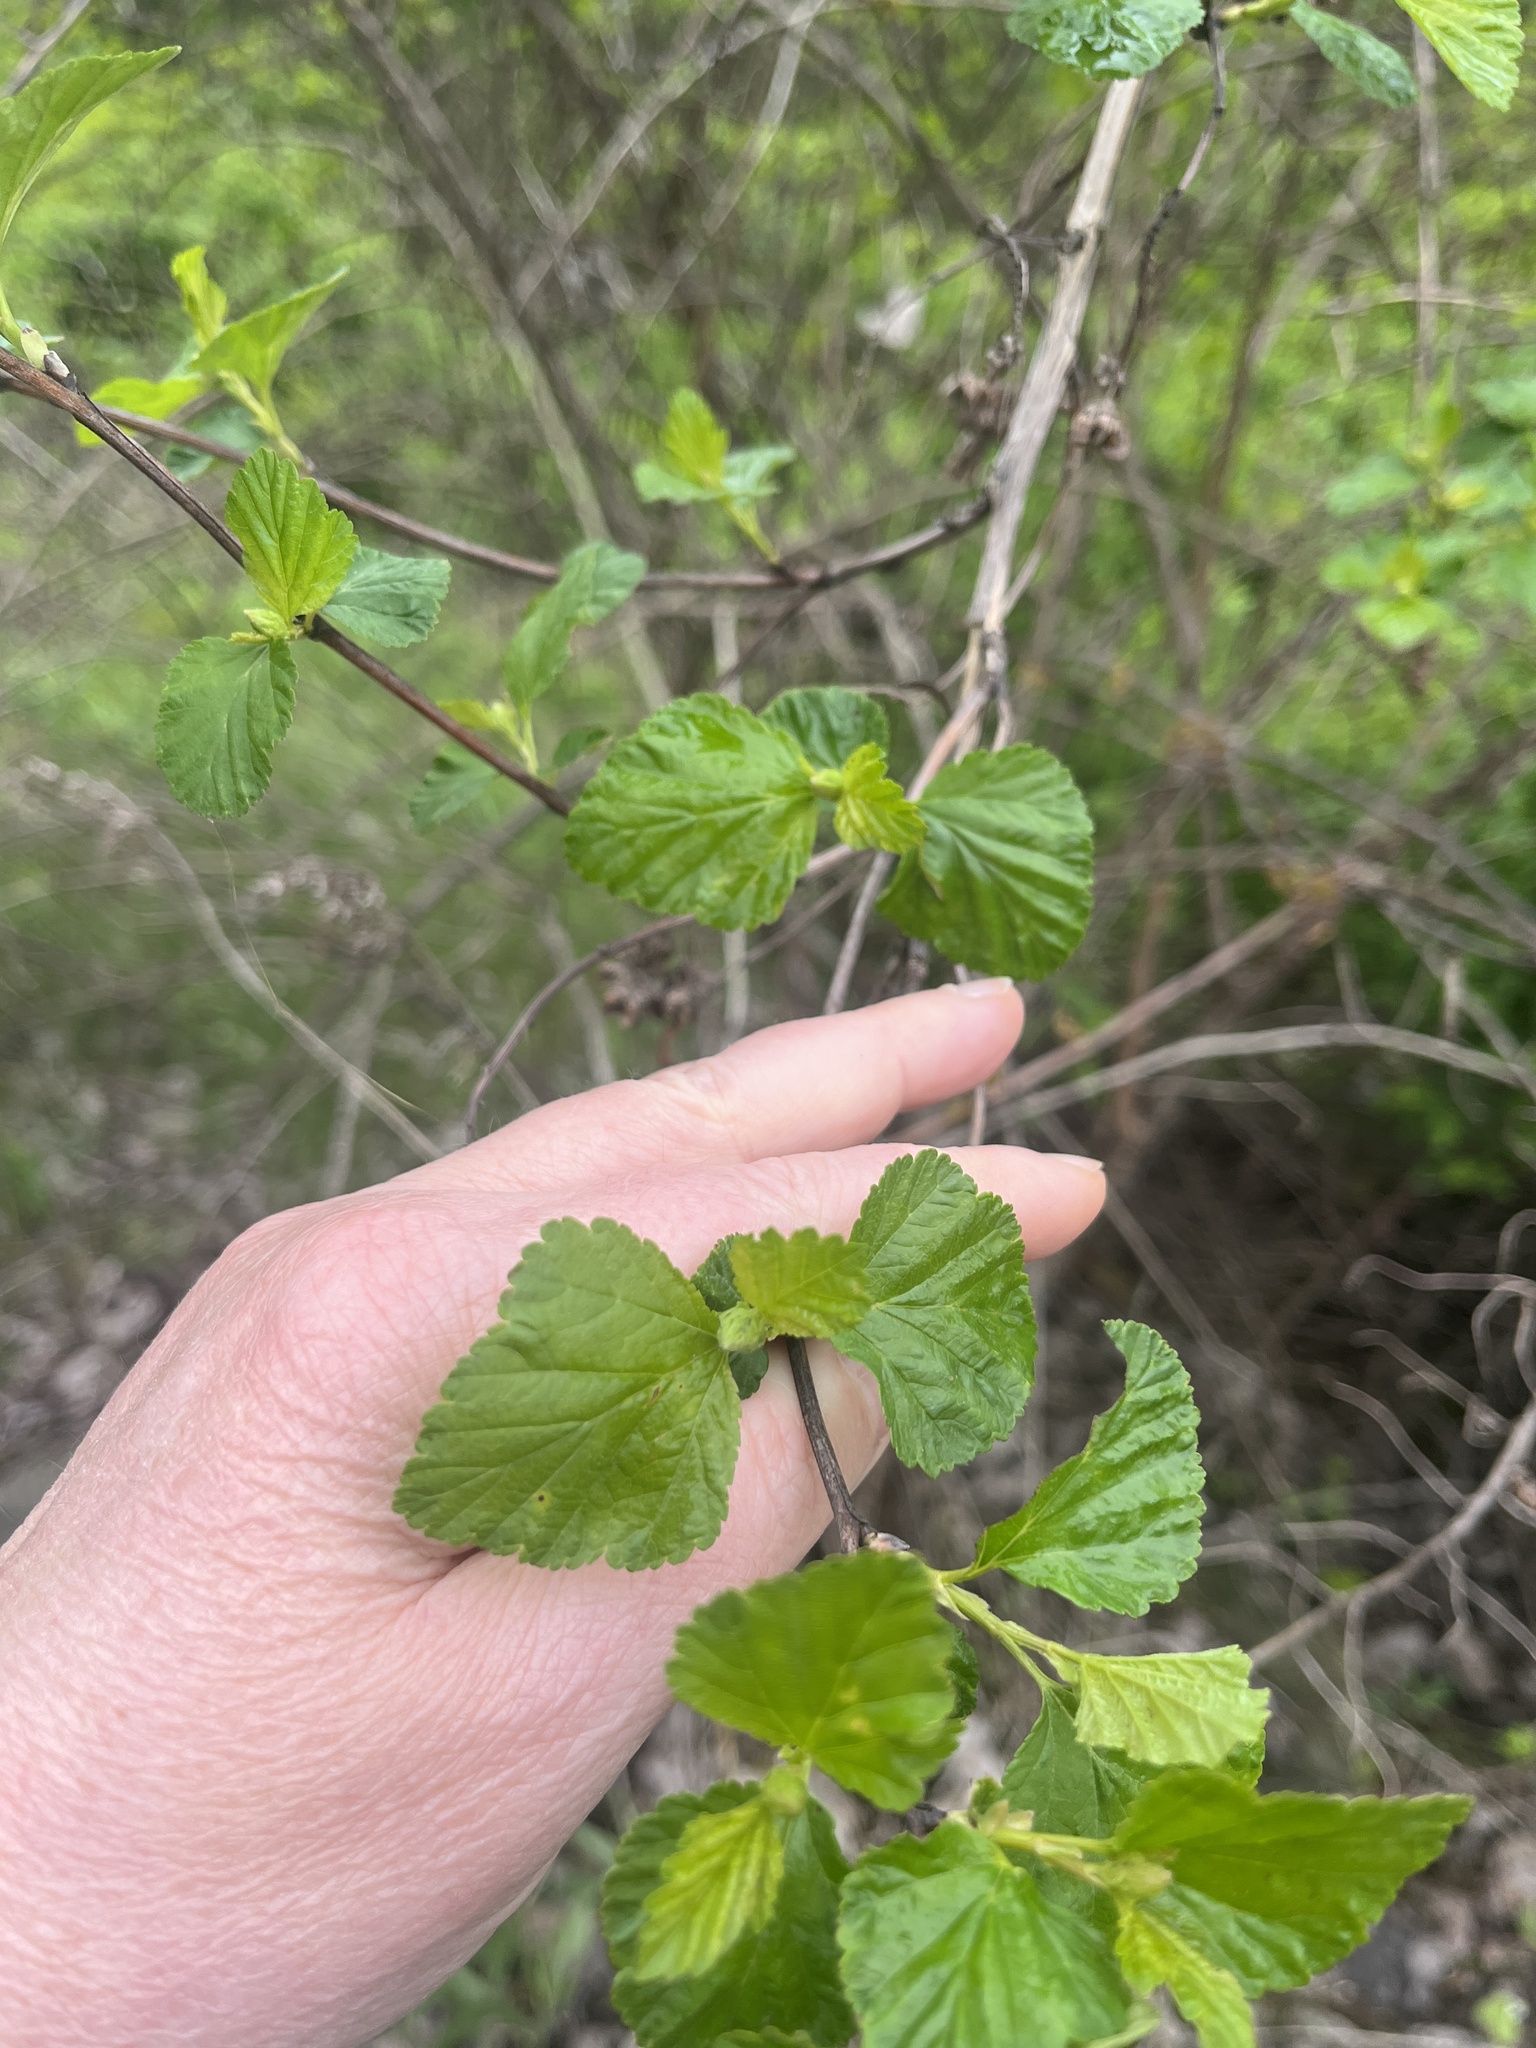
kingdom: Plantae
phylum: Tracheophyta
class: Magnoliopsida
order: Rosales
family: Rosaceae
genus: Physocarpus
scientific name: Physocarpus opulifolius
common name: Ninebark
